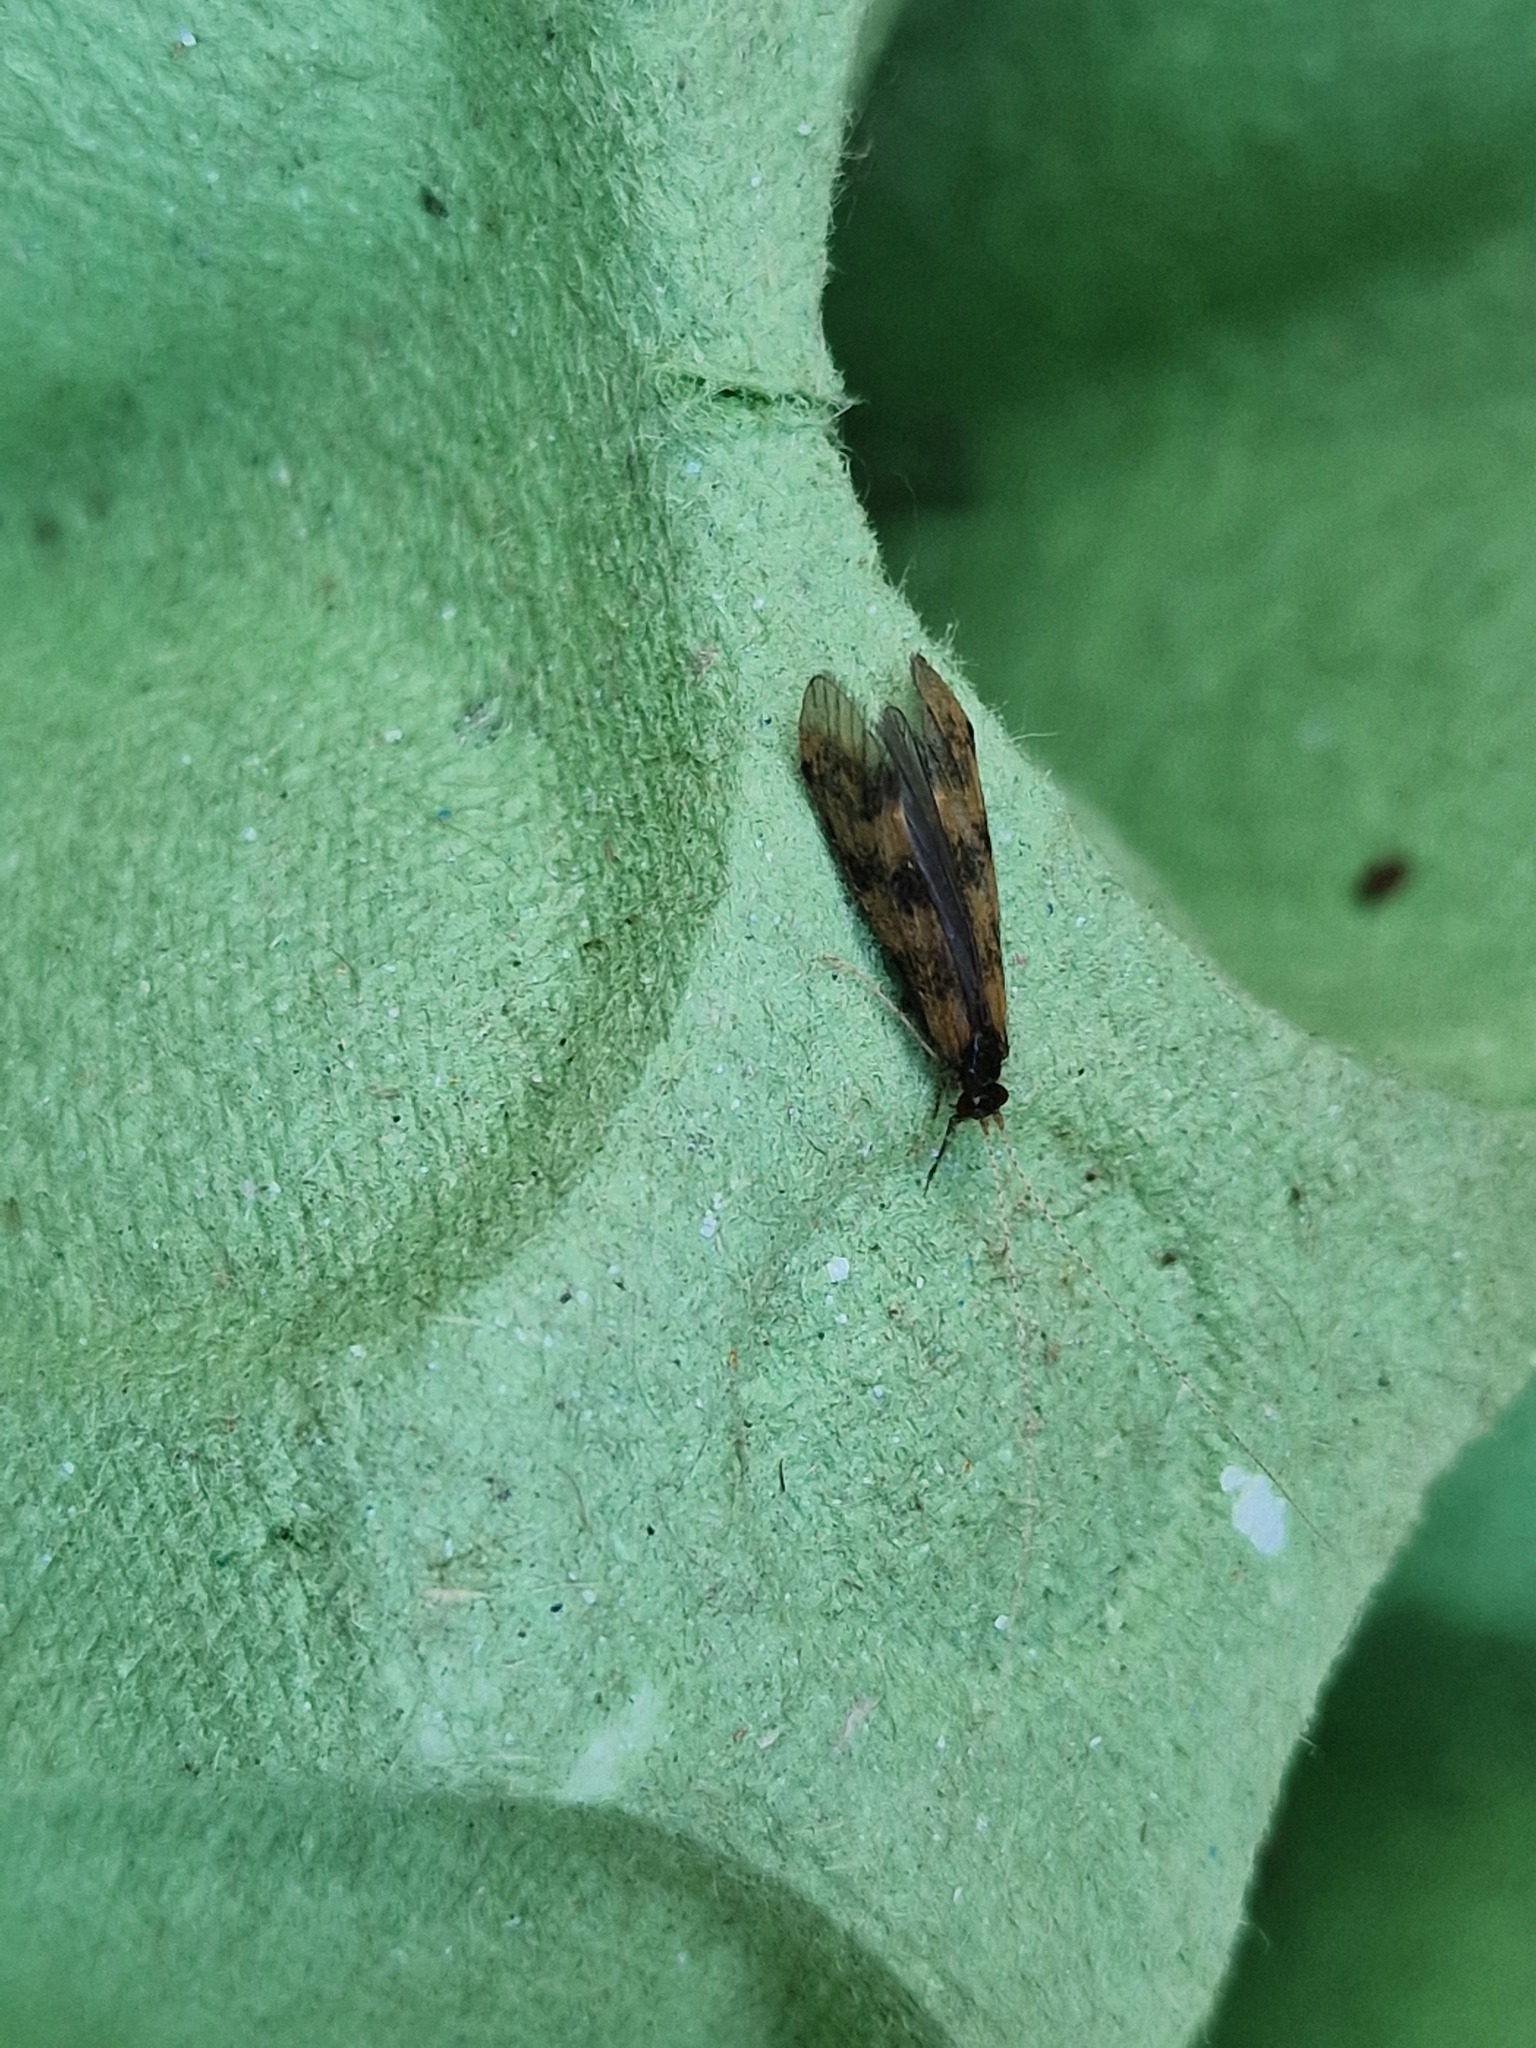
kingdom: Animalia
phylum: Arthropoda
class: Insecta
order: Trichoptera
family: Leptoceridae
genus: Mystacides
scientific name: Mystacides longicornis
